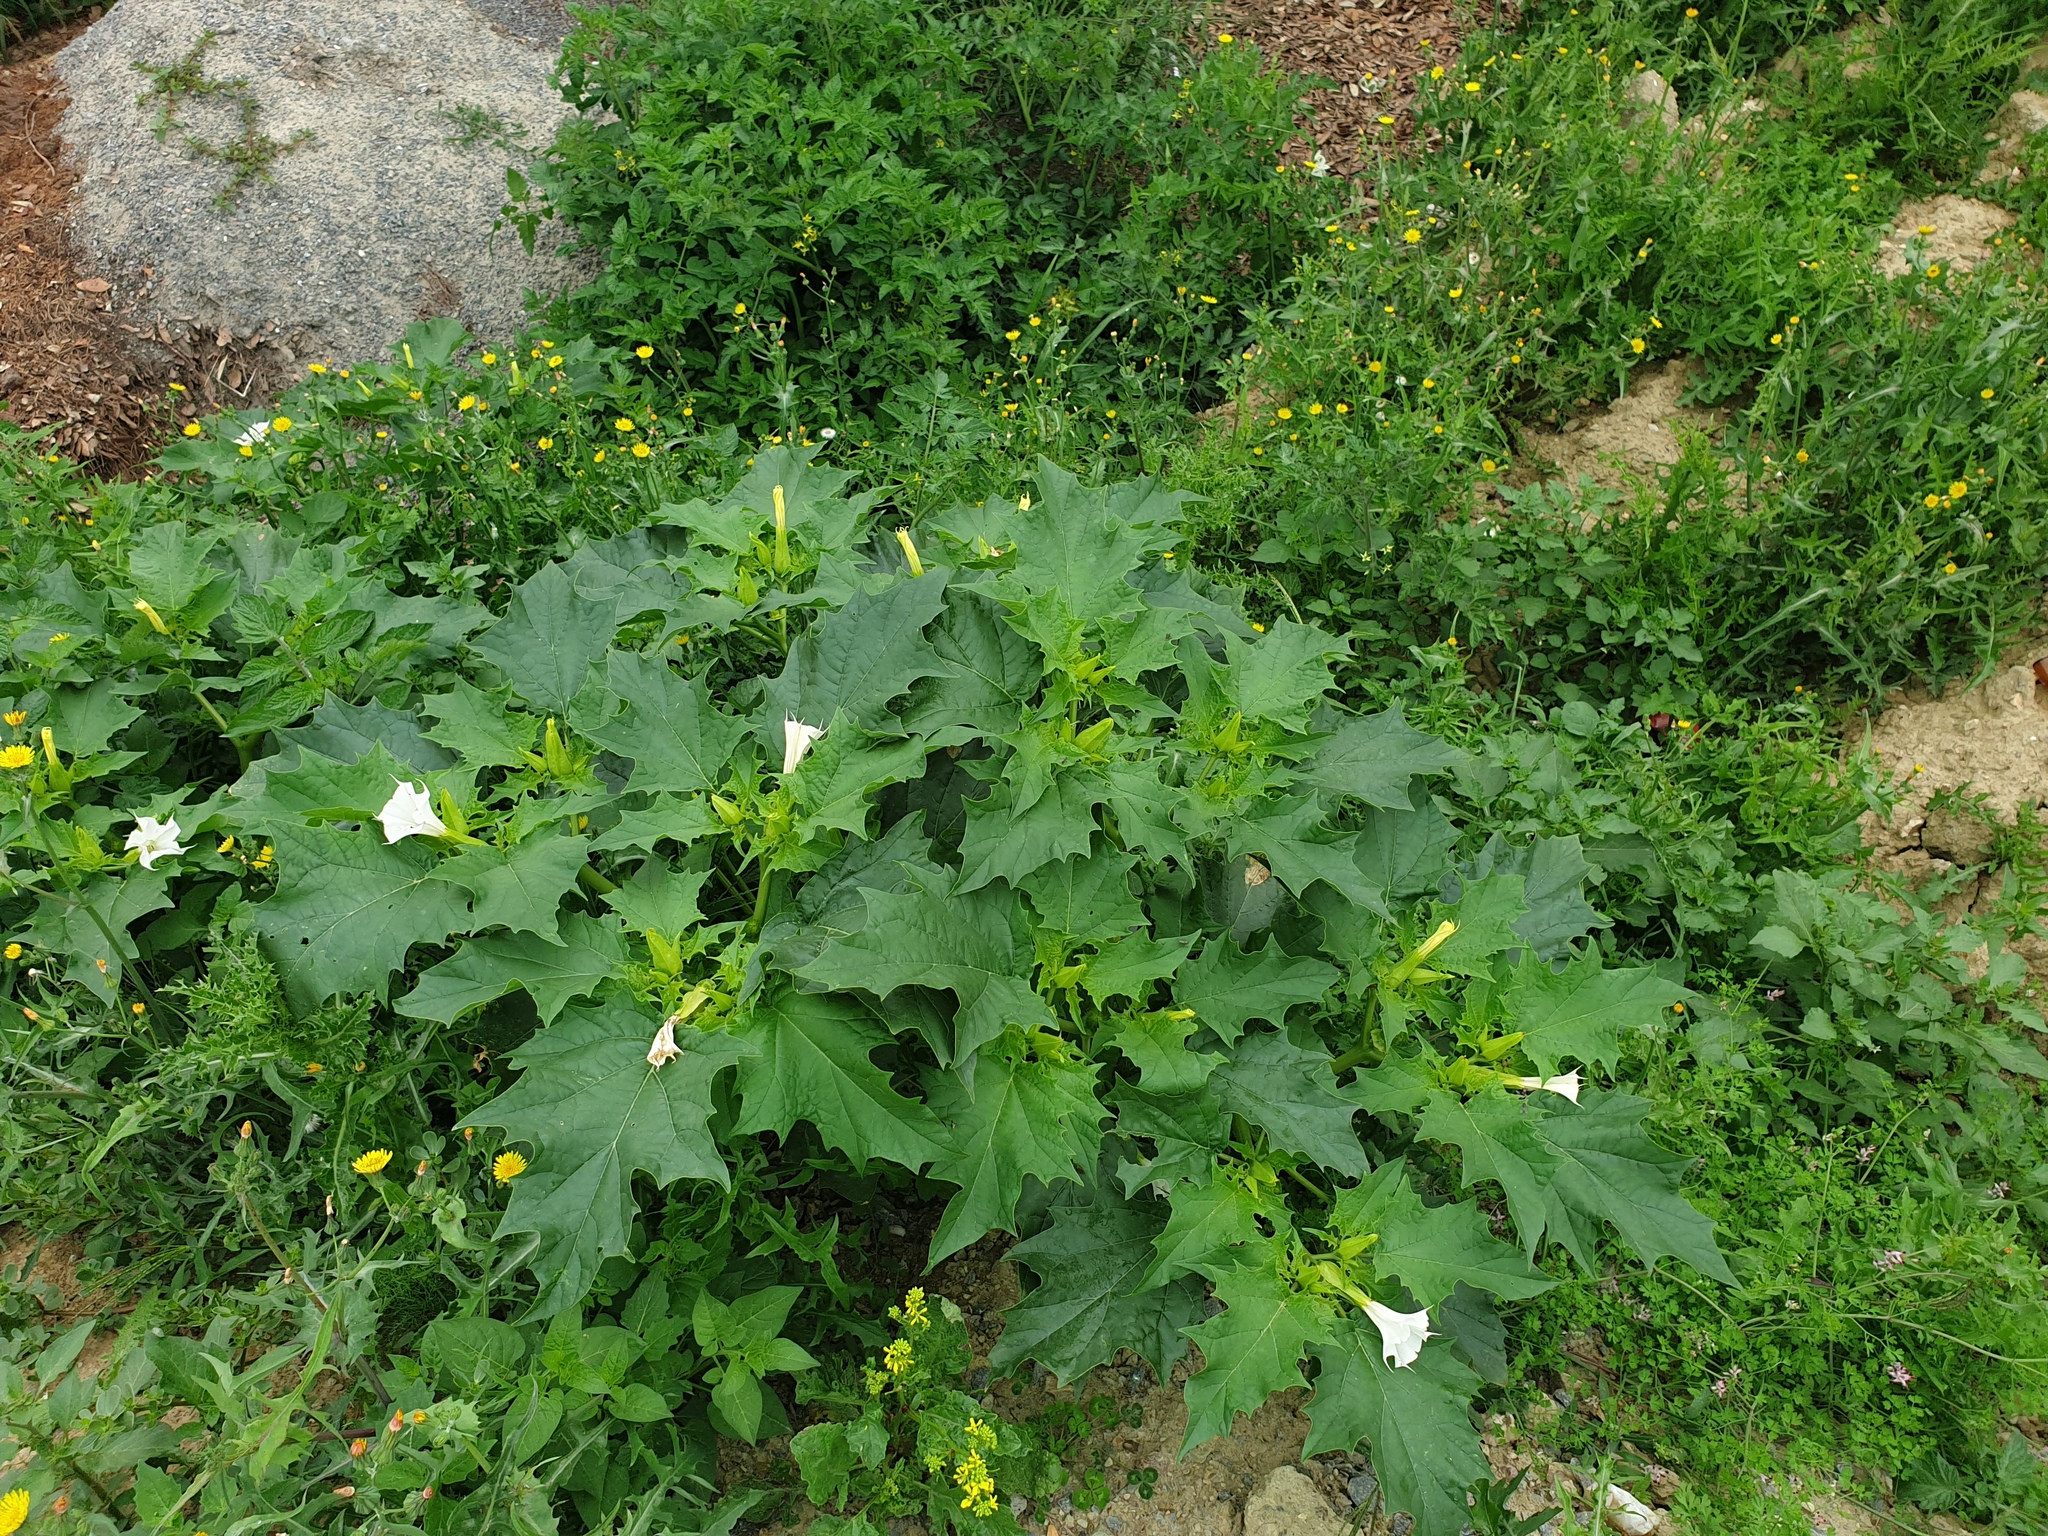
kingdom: Plantae
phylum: Tracheophyta
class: Magnoliopsida
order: Solanales
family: Solanaceae
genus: Datura
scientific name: Datura stramonium
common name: Thorn-apple
